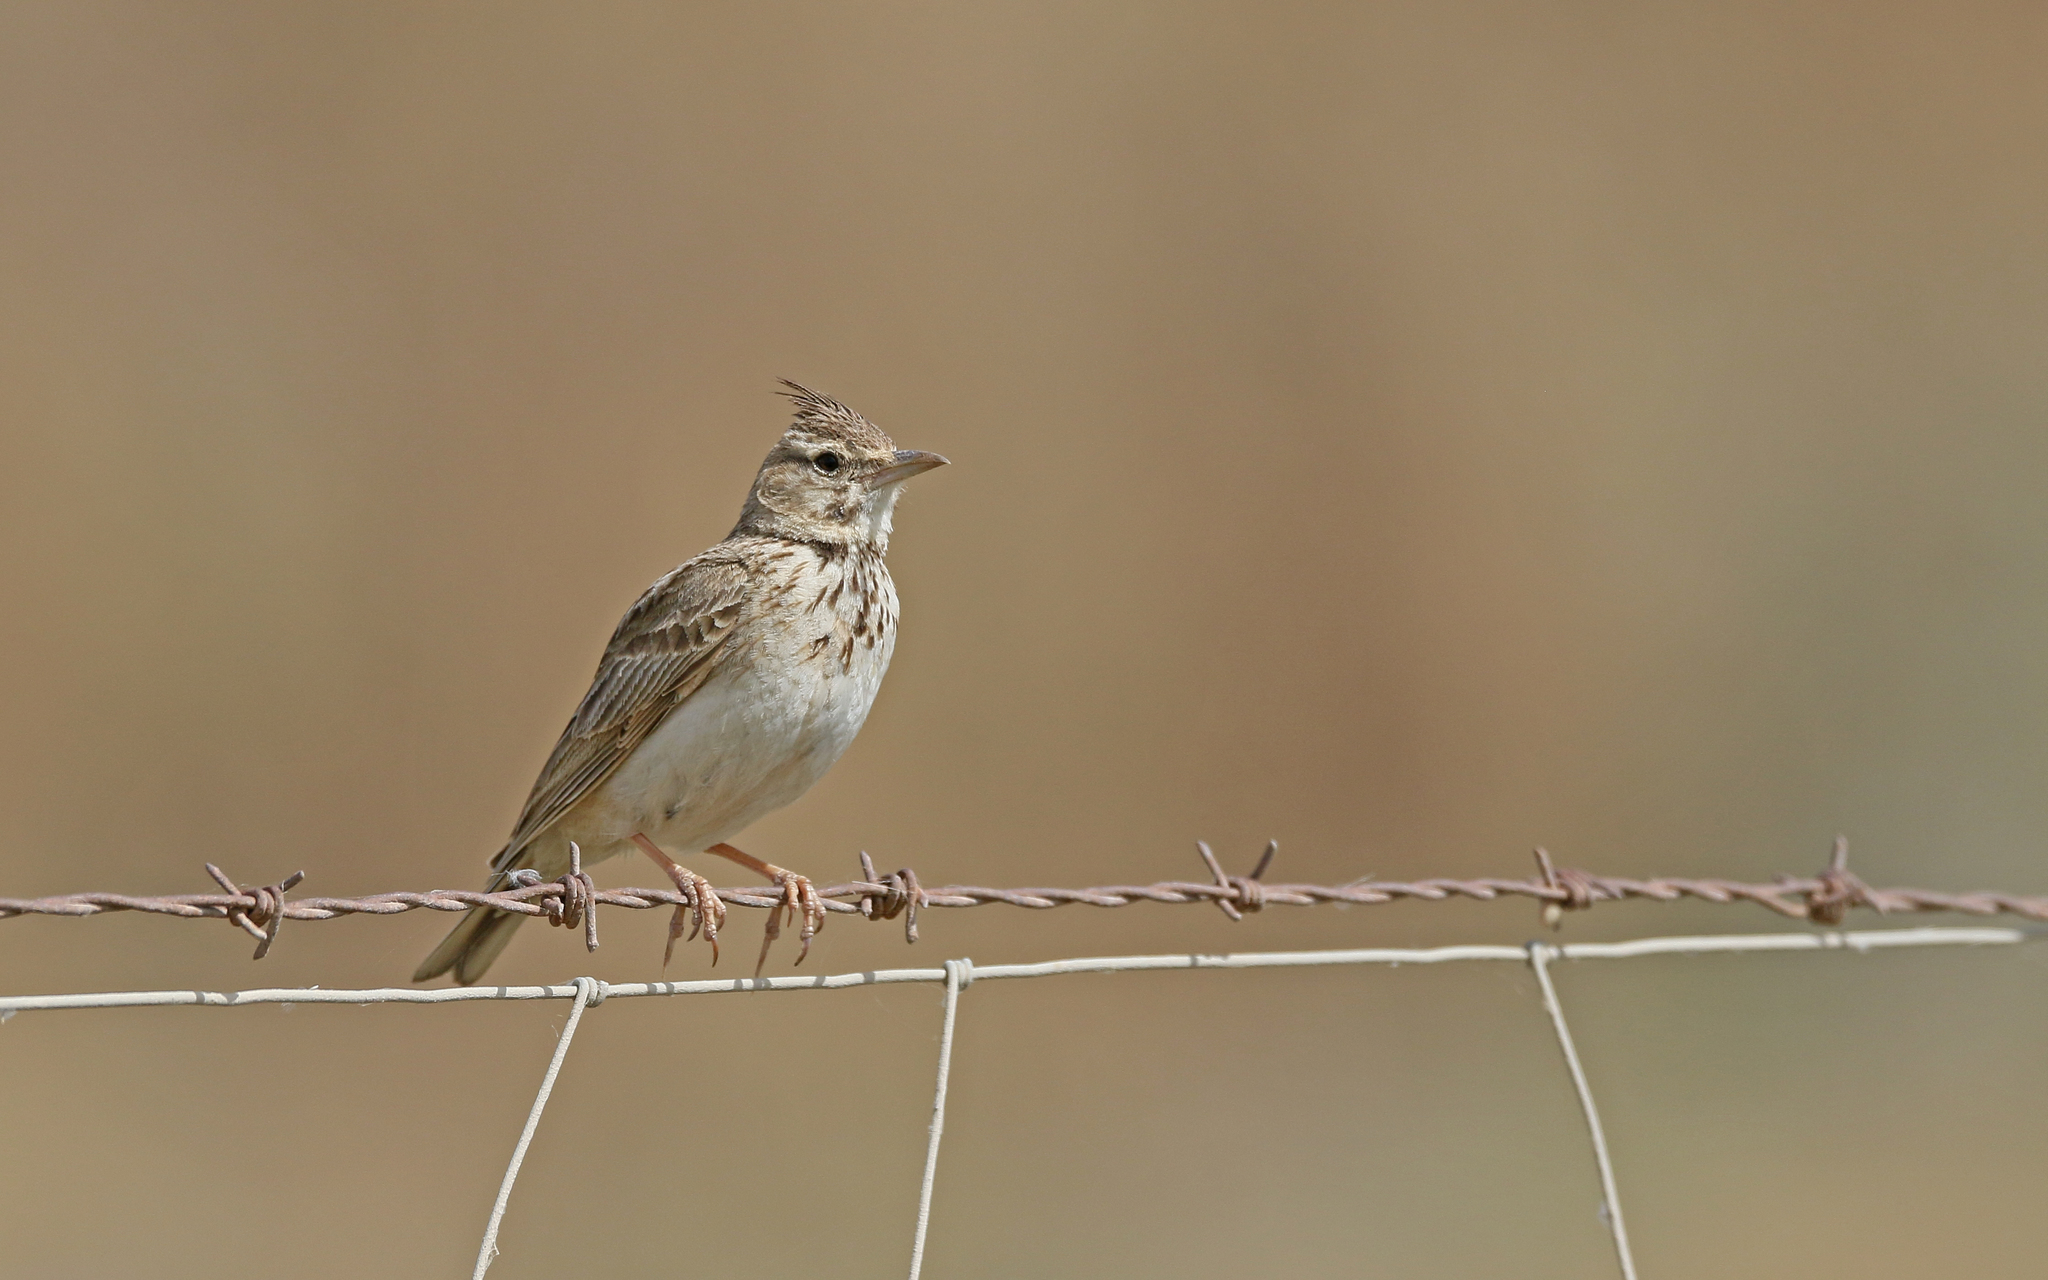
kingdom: Animalia
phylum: Chordata
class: Aves
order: Passeriformes
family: Alaudidae
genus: Galerida
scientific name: Galerida cristata
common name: Crested lark
